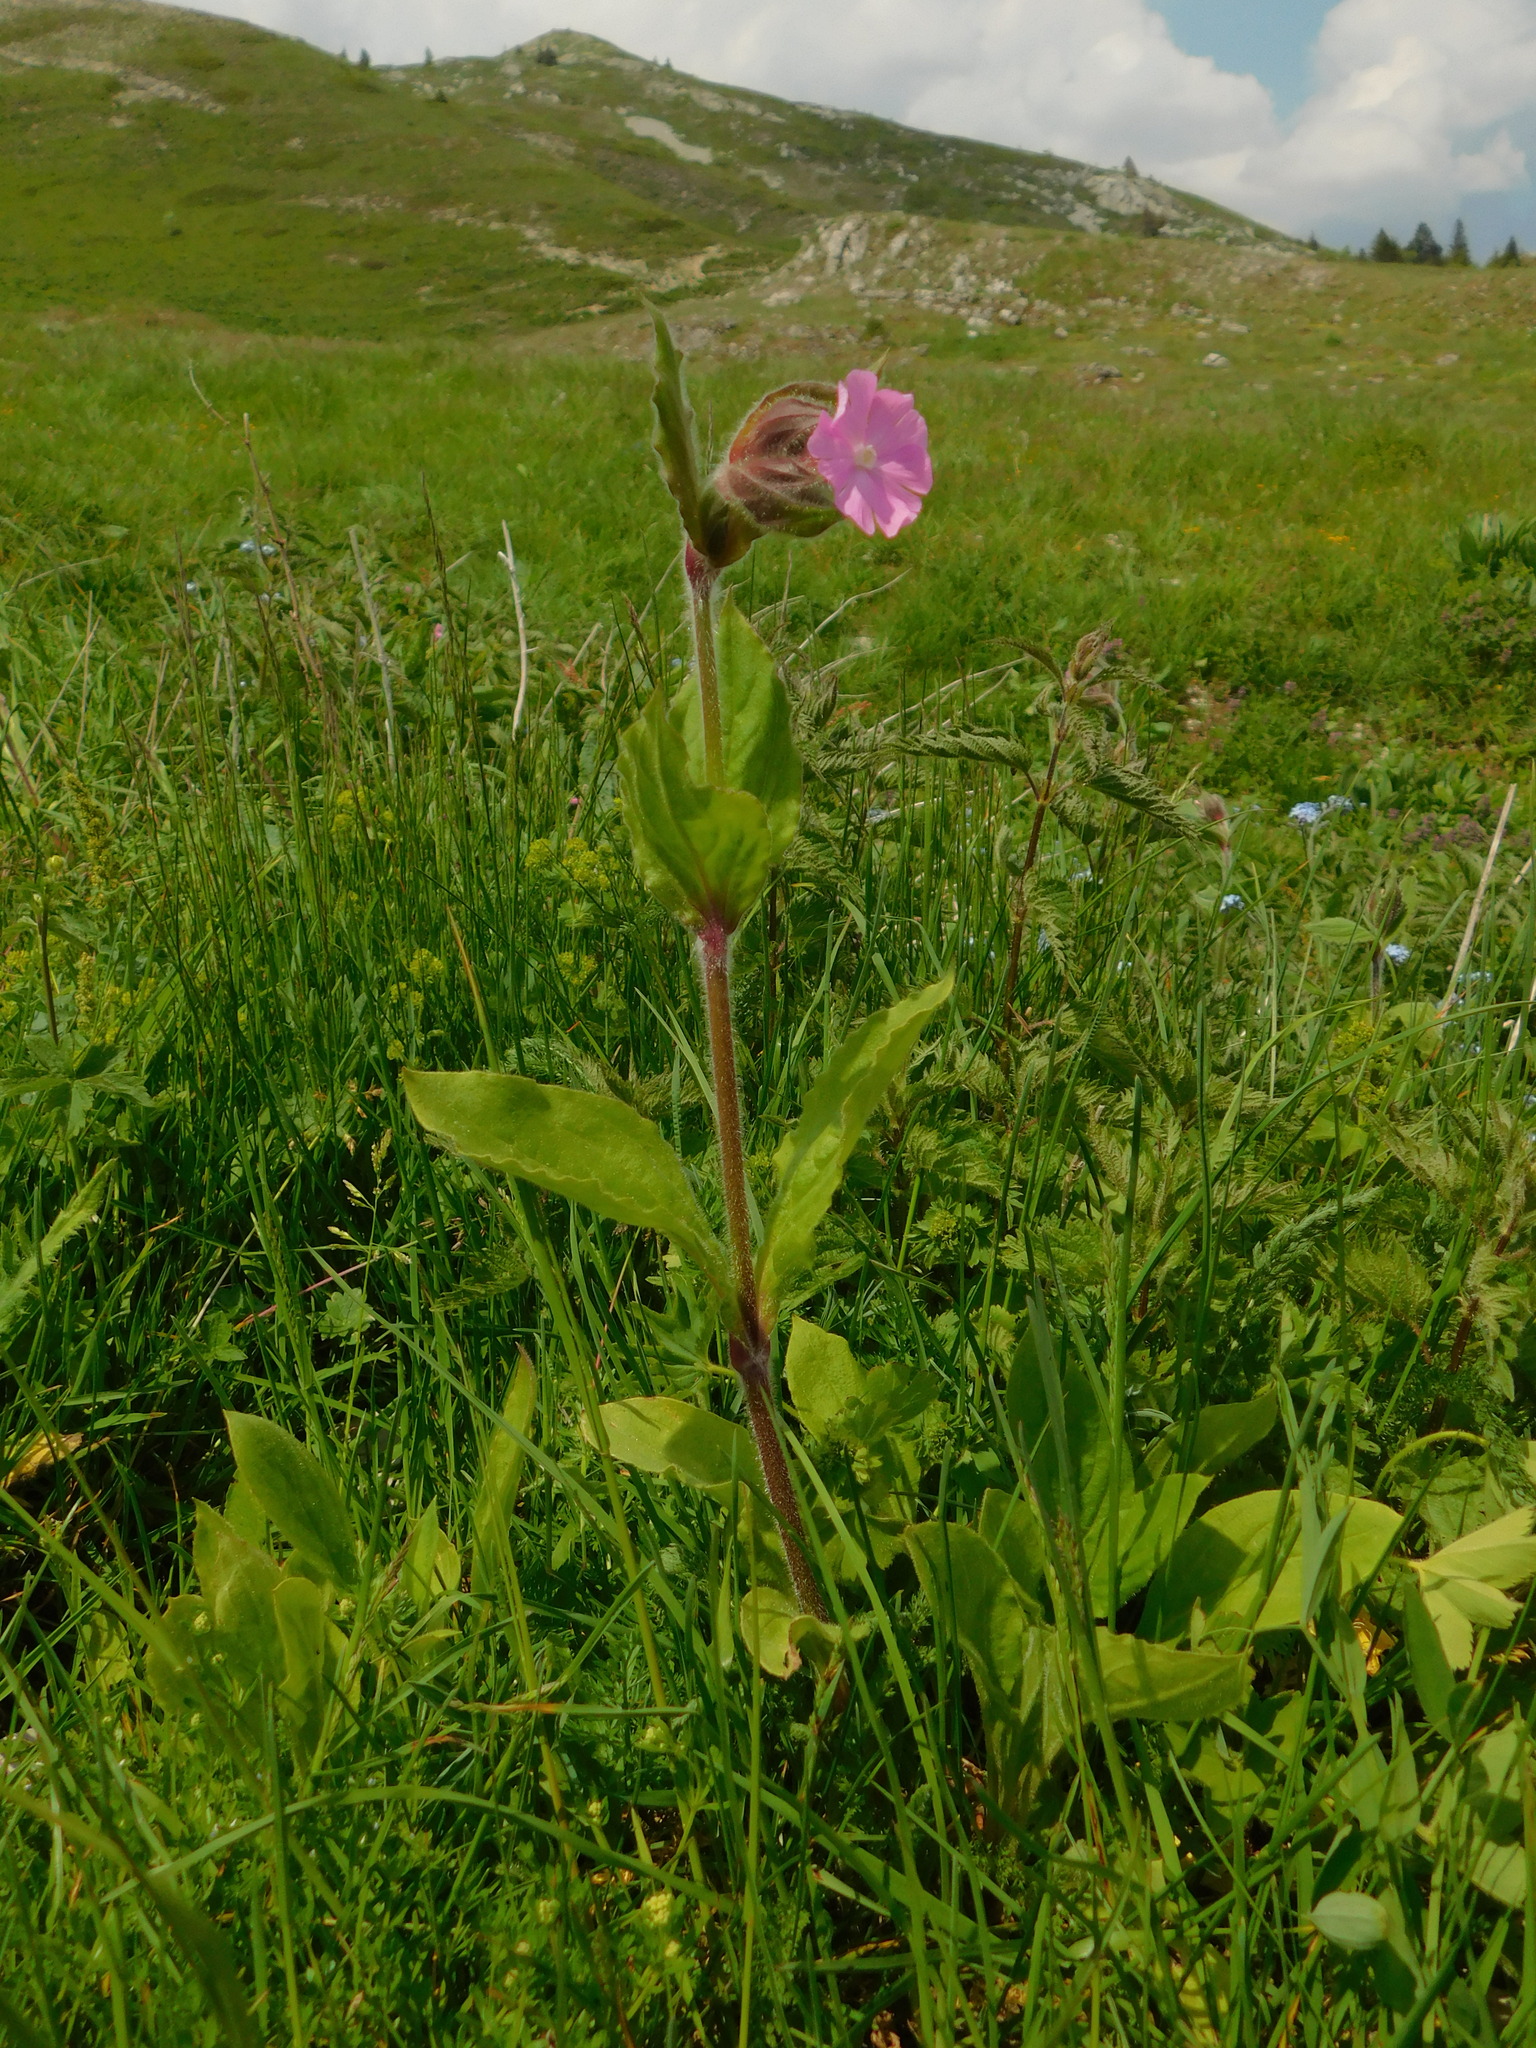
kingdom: Plantae
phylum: Tracheophyta
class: Magnoliopsida
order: Caryophyllales
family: Caryophyllaceae
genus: Silene
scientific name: Silene dioica
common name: Red campion
